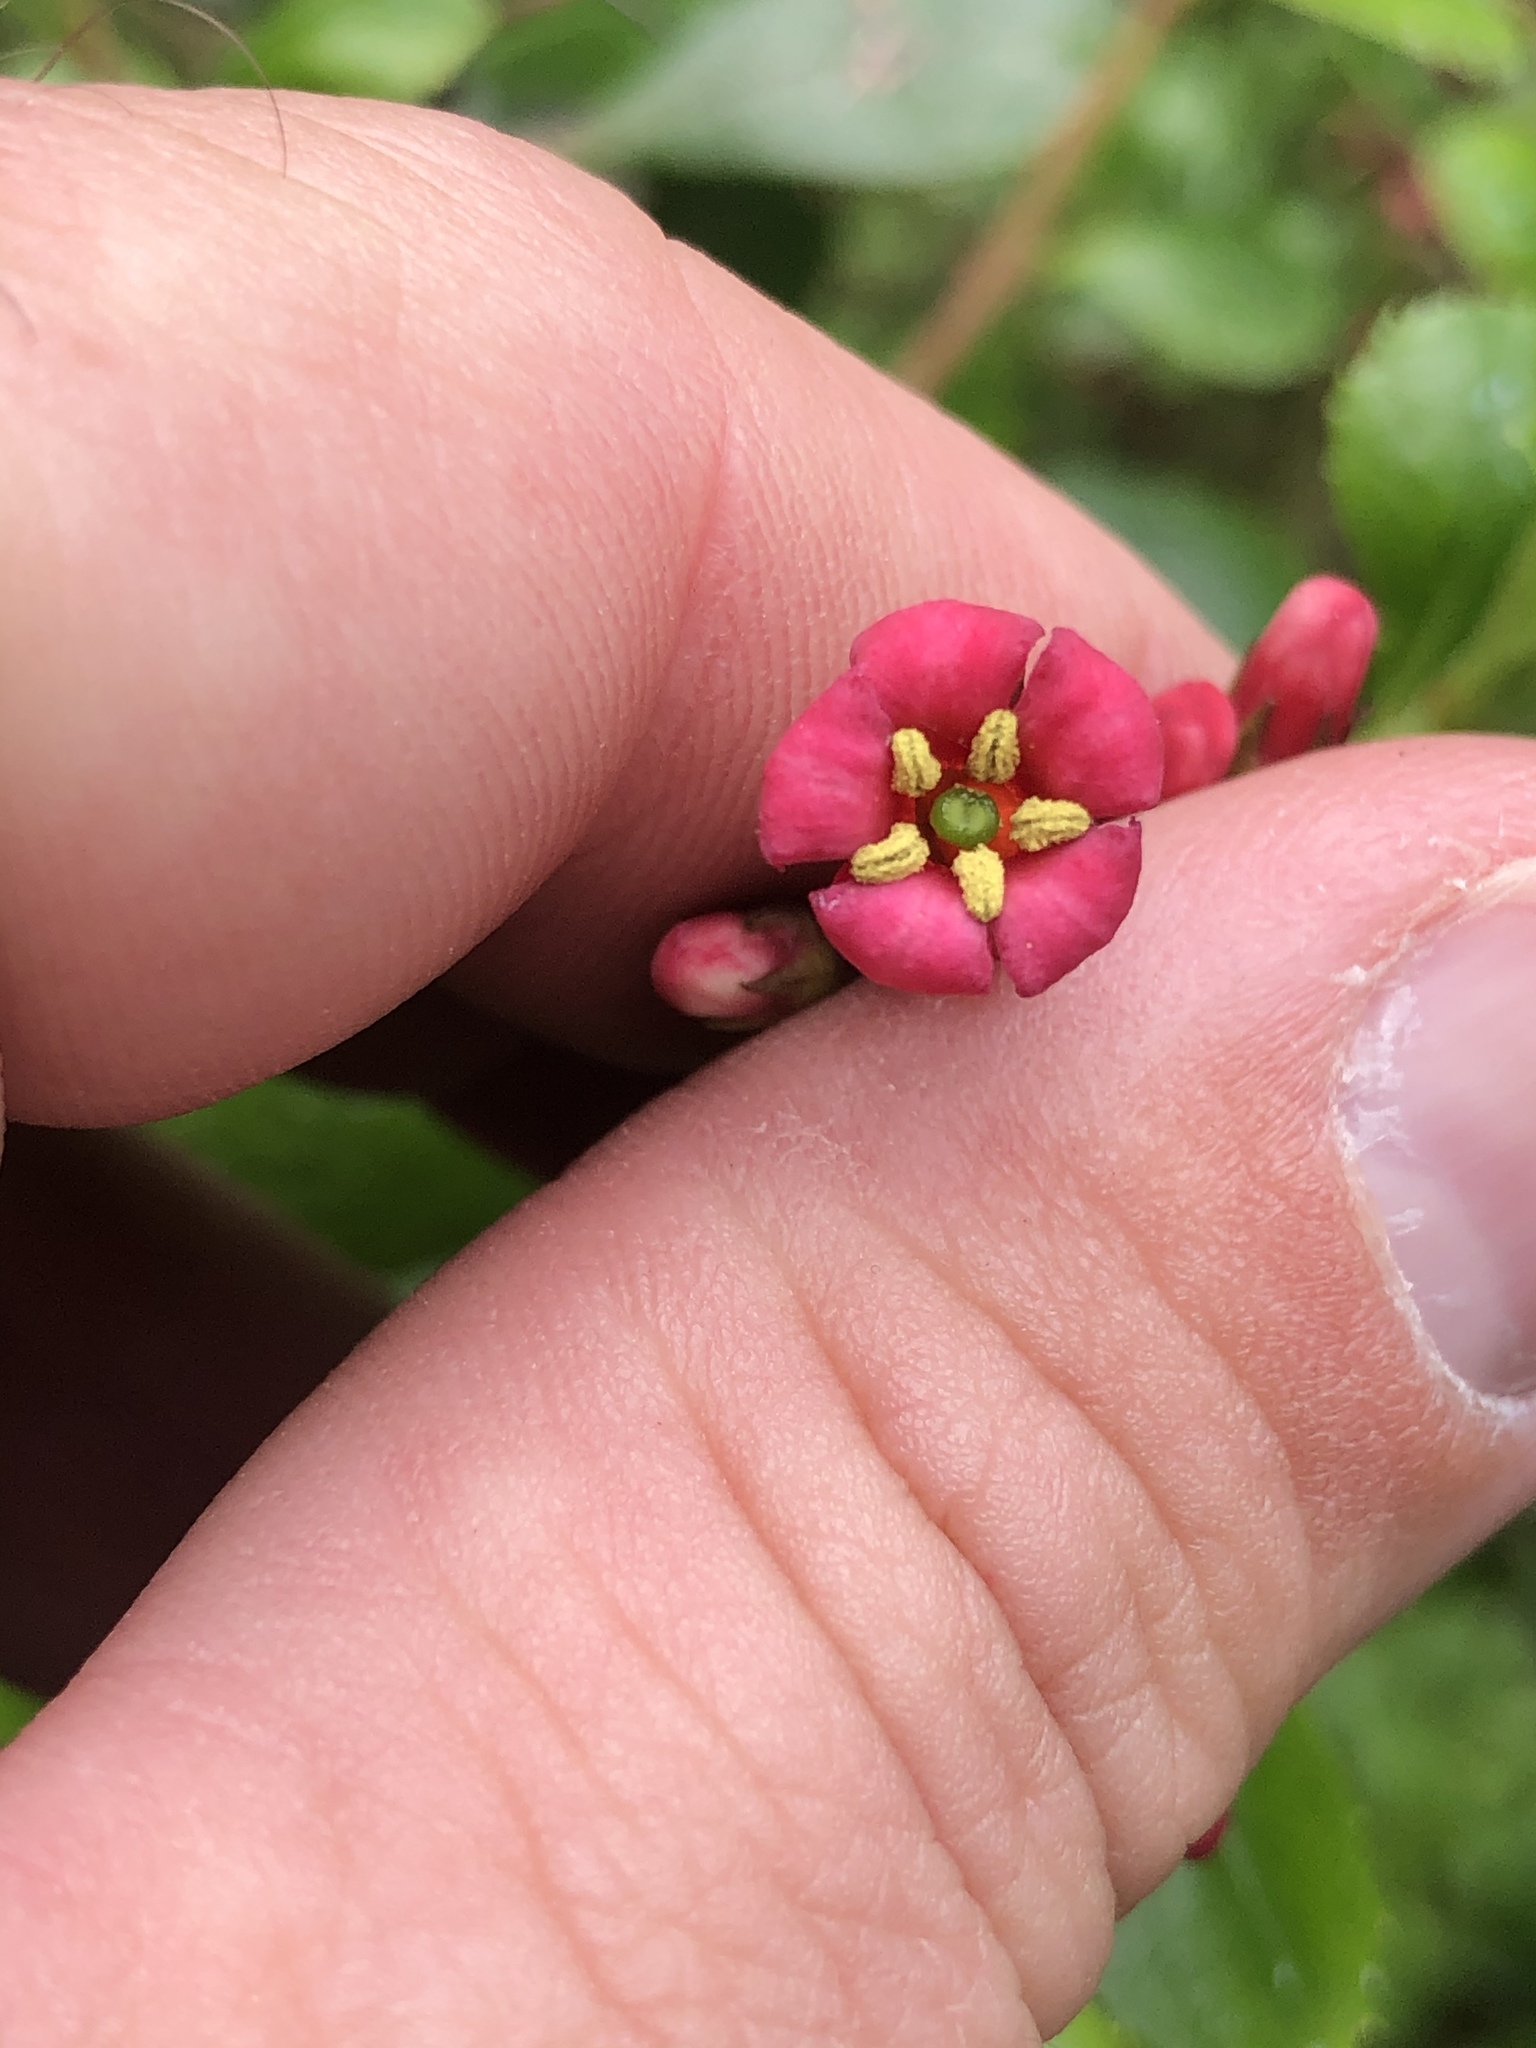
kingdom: Plantae
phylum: Tracheophyta
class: Magnoliopsida
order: Escalloniales
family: Escalloniaceae
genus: Escallonia
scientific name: Escallonia rubra
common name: Redclaws
